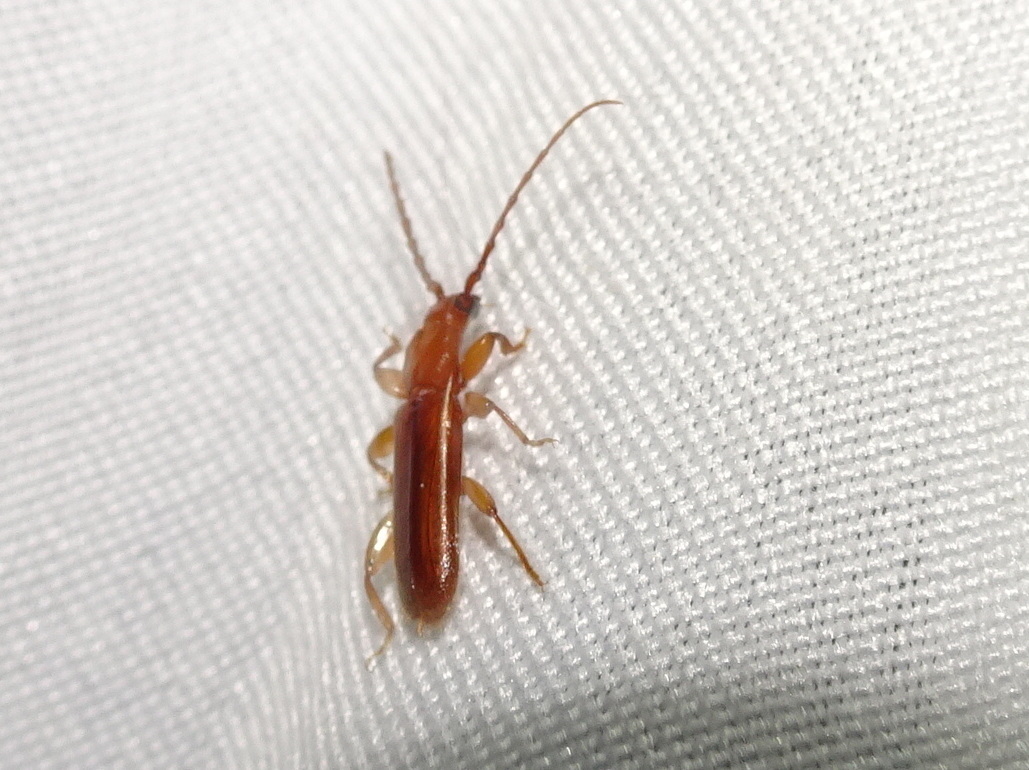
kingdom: Animalia
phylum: Arthropoda
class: Insecta
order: Coleoptera
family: Cerambycidae
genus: Smodicum
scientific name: Smodicum cucujiforme
